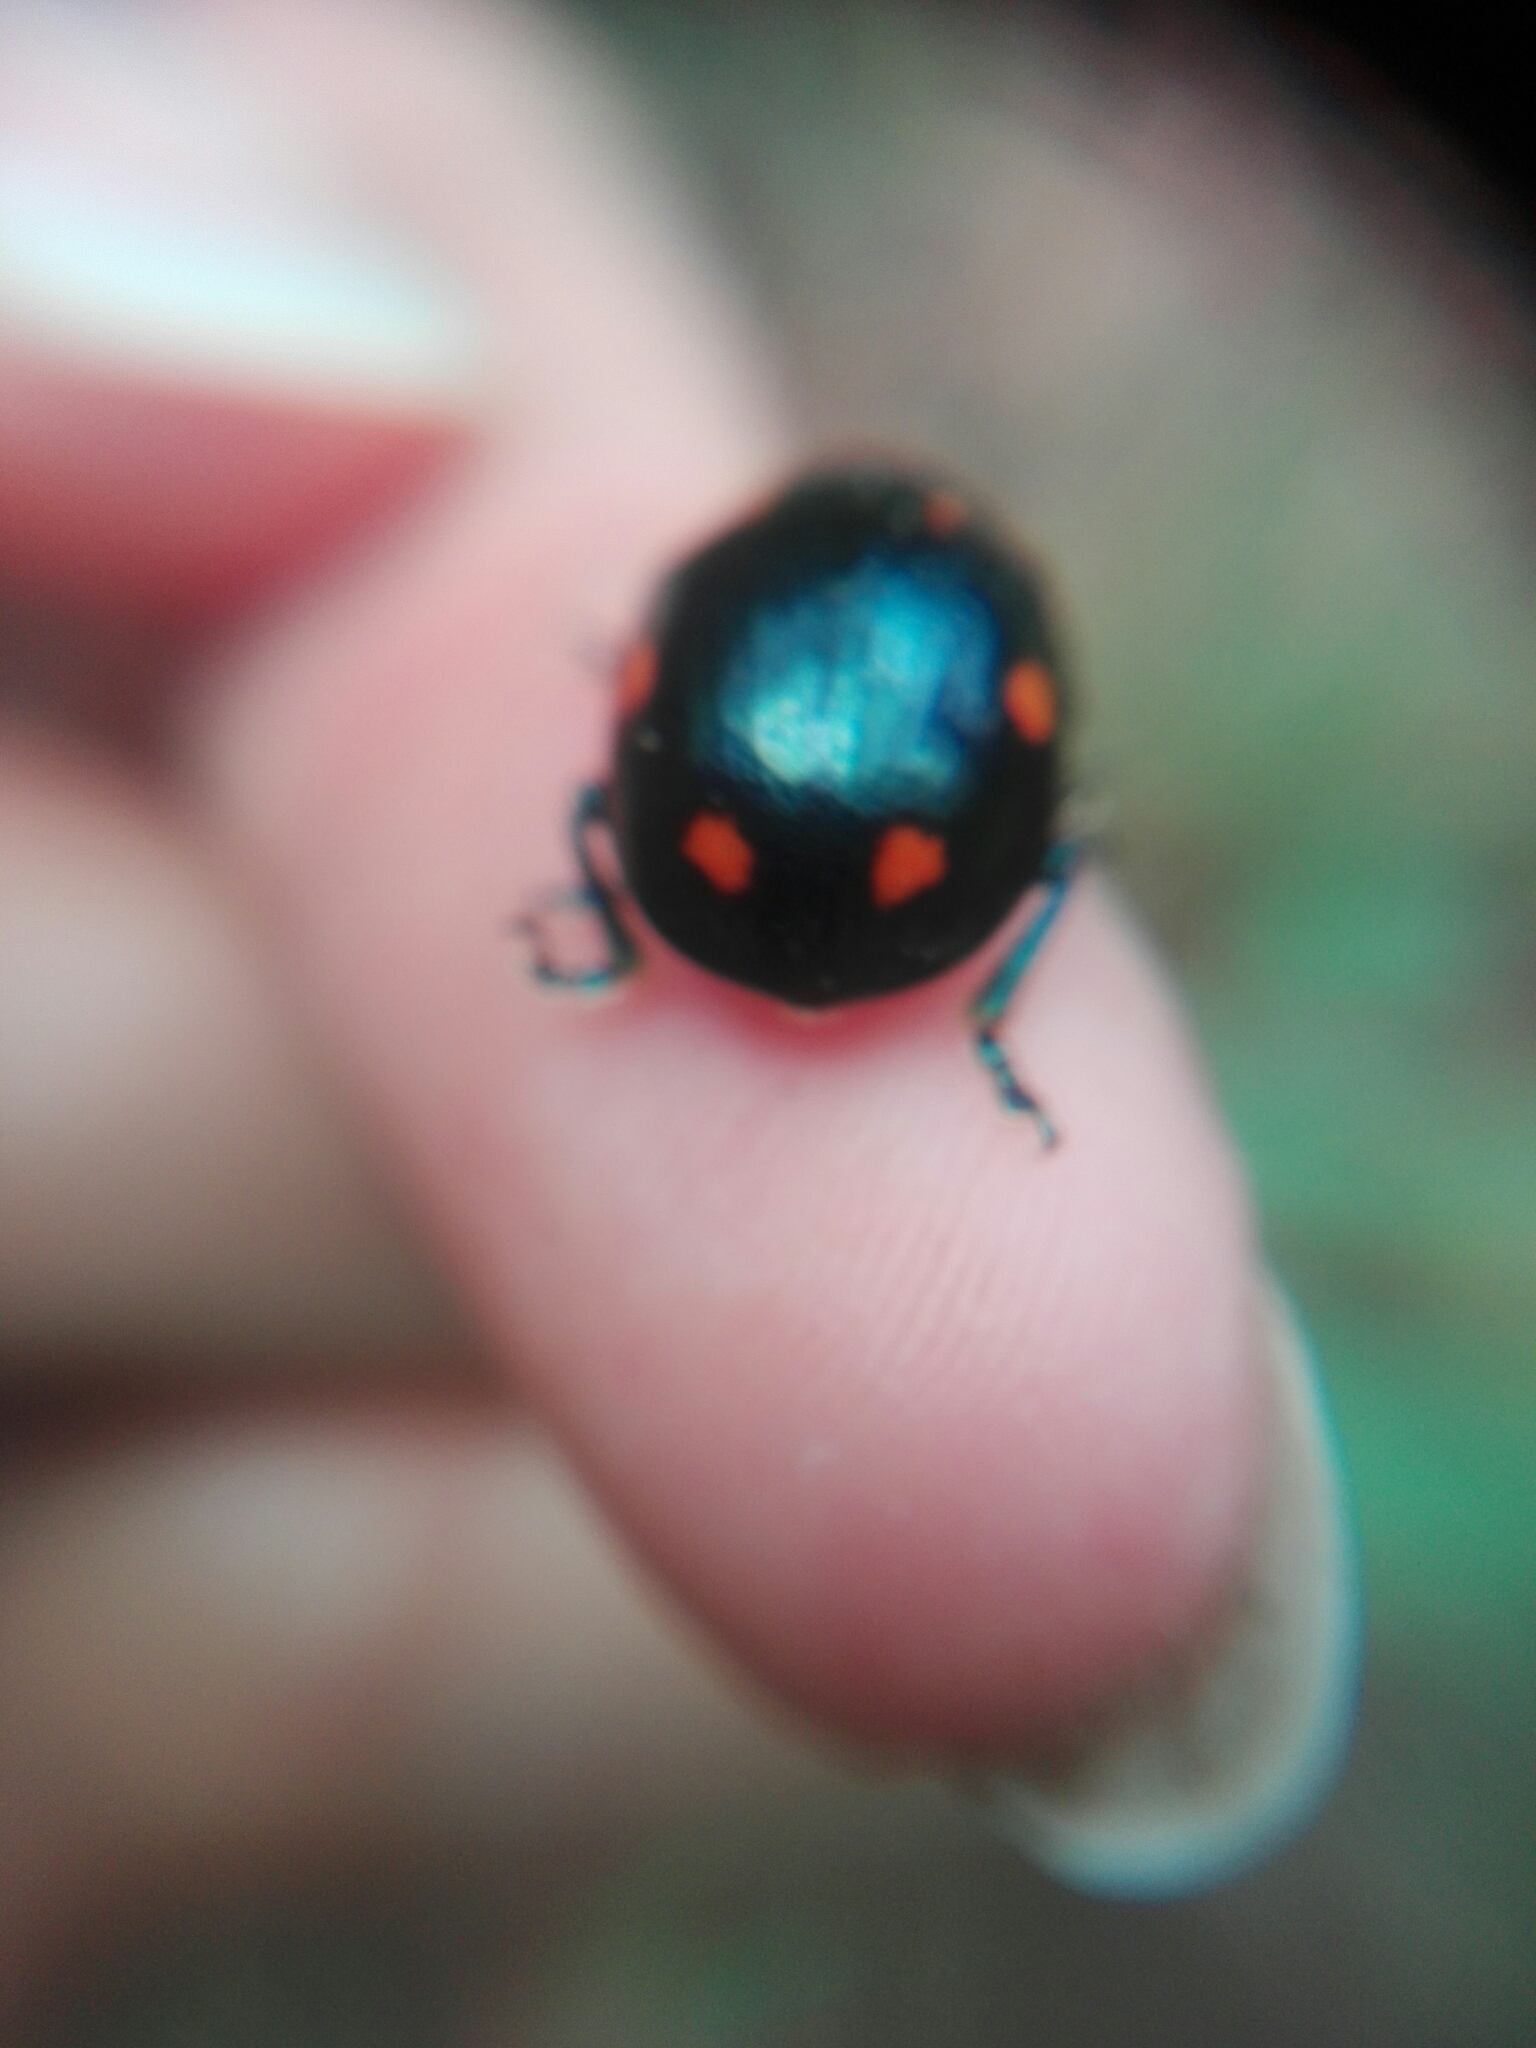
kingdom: Animalia
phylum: Arthropoda
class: Insecta
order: Coleoptera
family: Chrysomelidae
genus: Labidomera
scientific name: Labidomera
